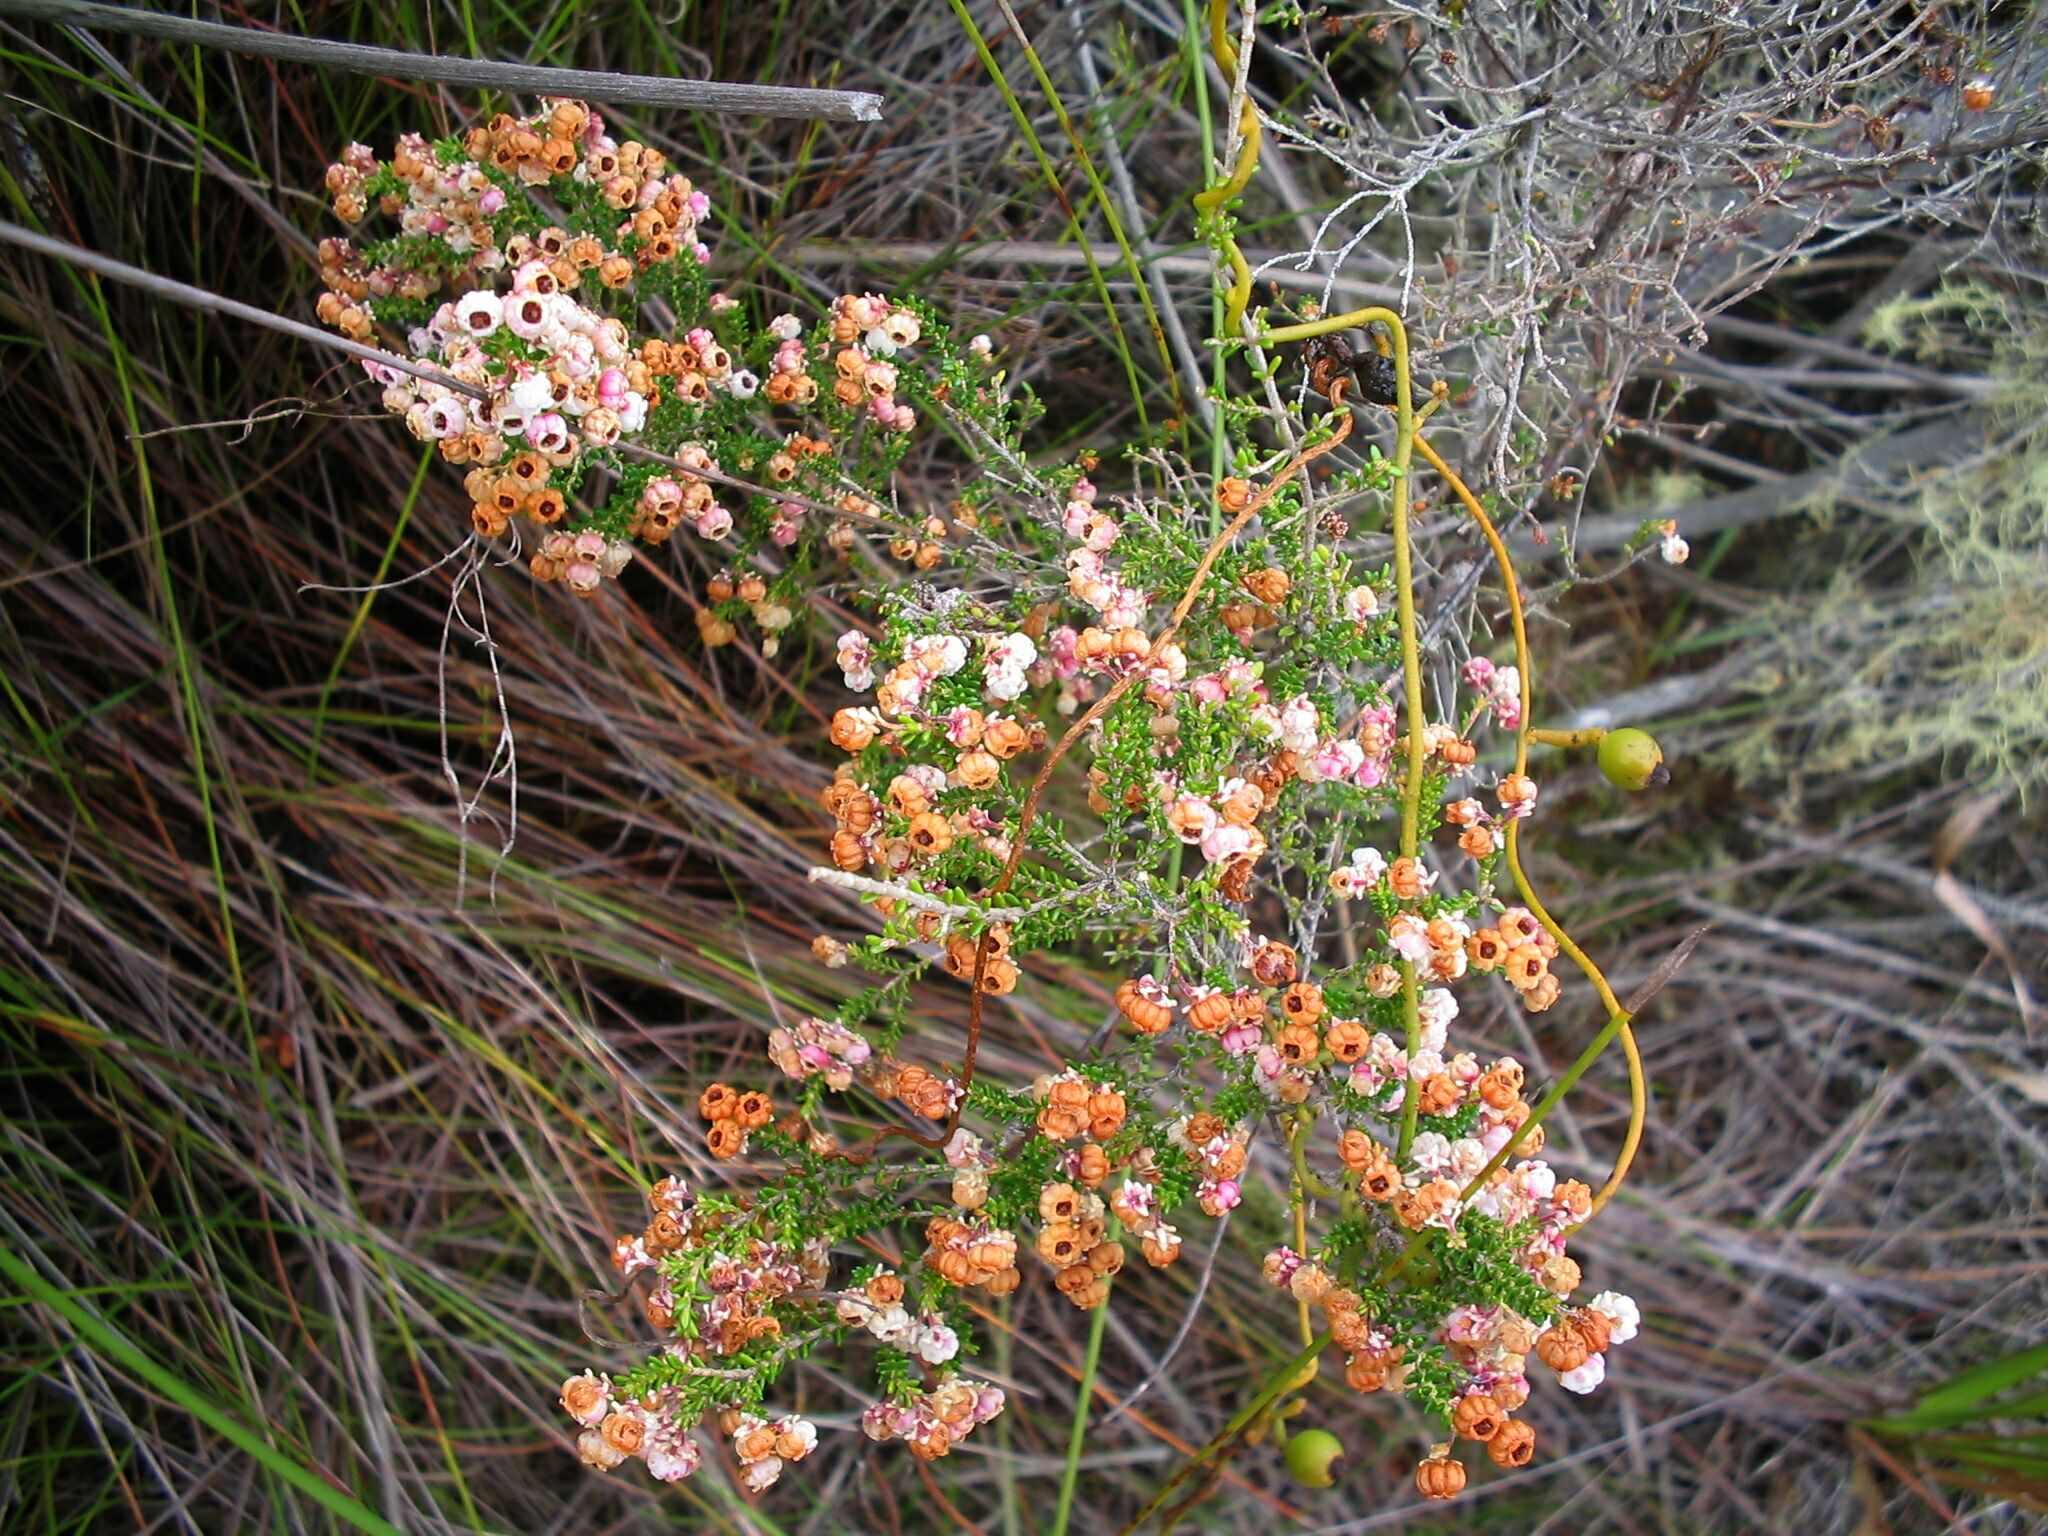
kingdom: Plantae
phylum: Tracheophyta
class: Magnoliopsida
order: Ericales
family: Ericaceae
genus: Erica
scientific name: Erica formosa
